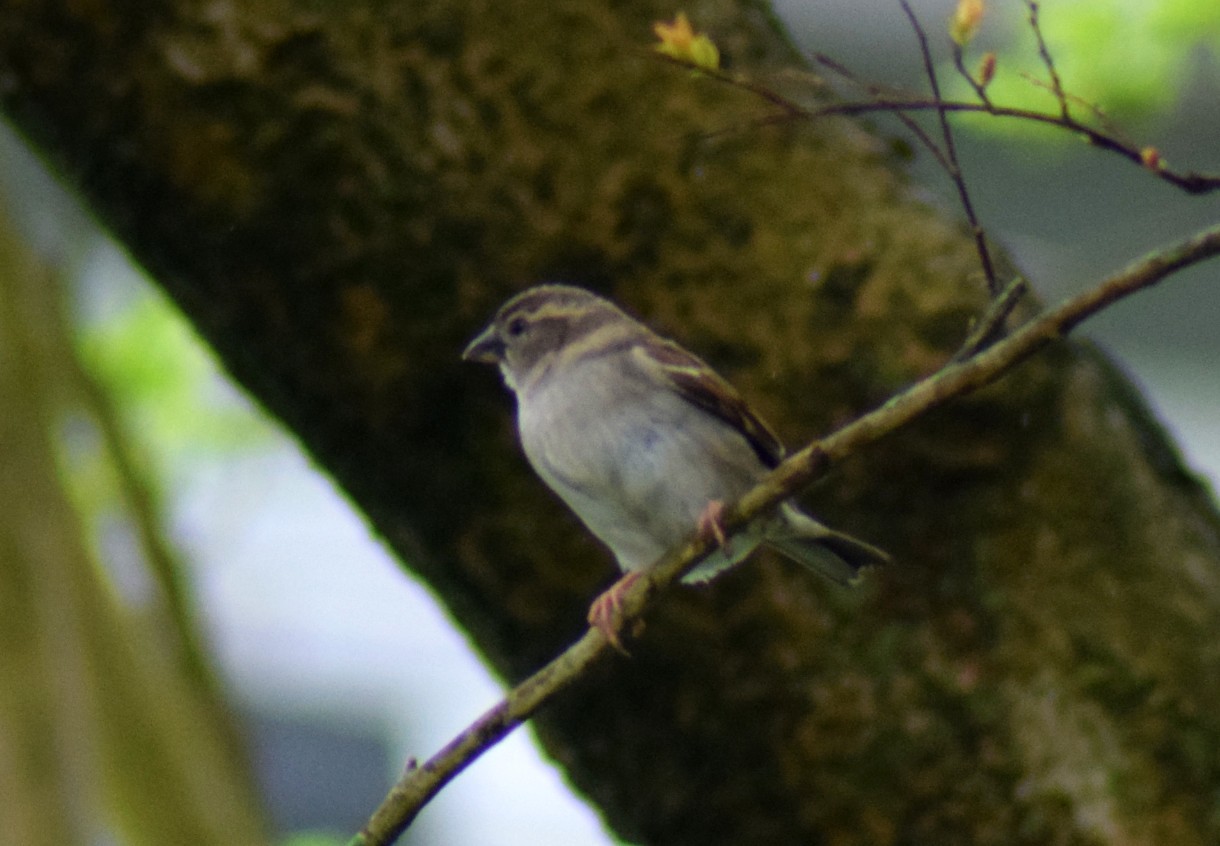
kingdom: Animalia
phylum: Chordata
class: Aves
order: Passeriformes
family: Passeridae
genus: Passer
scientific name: Passer domesticus
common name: House sparrow
